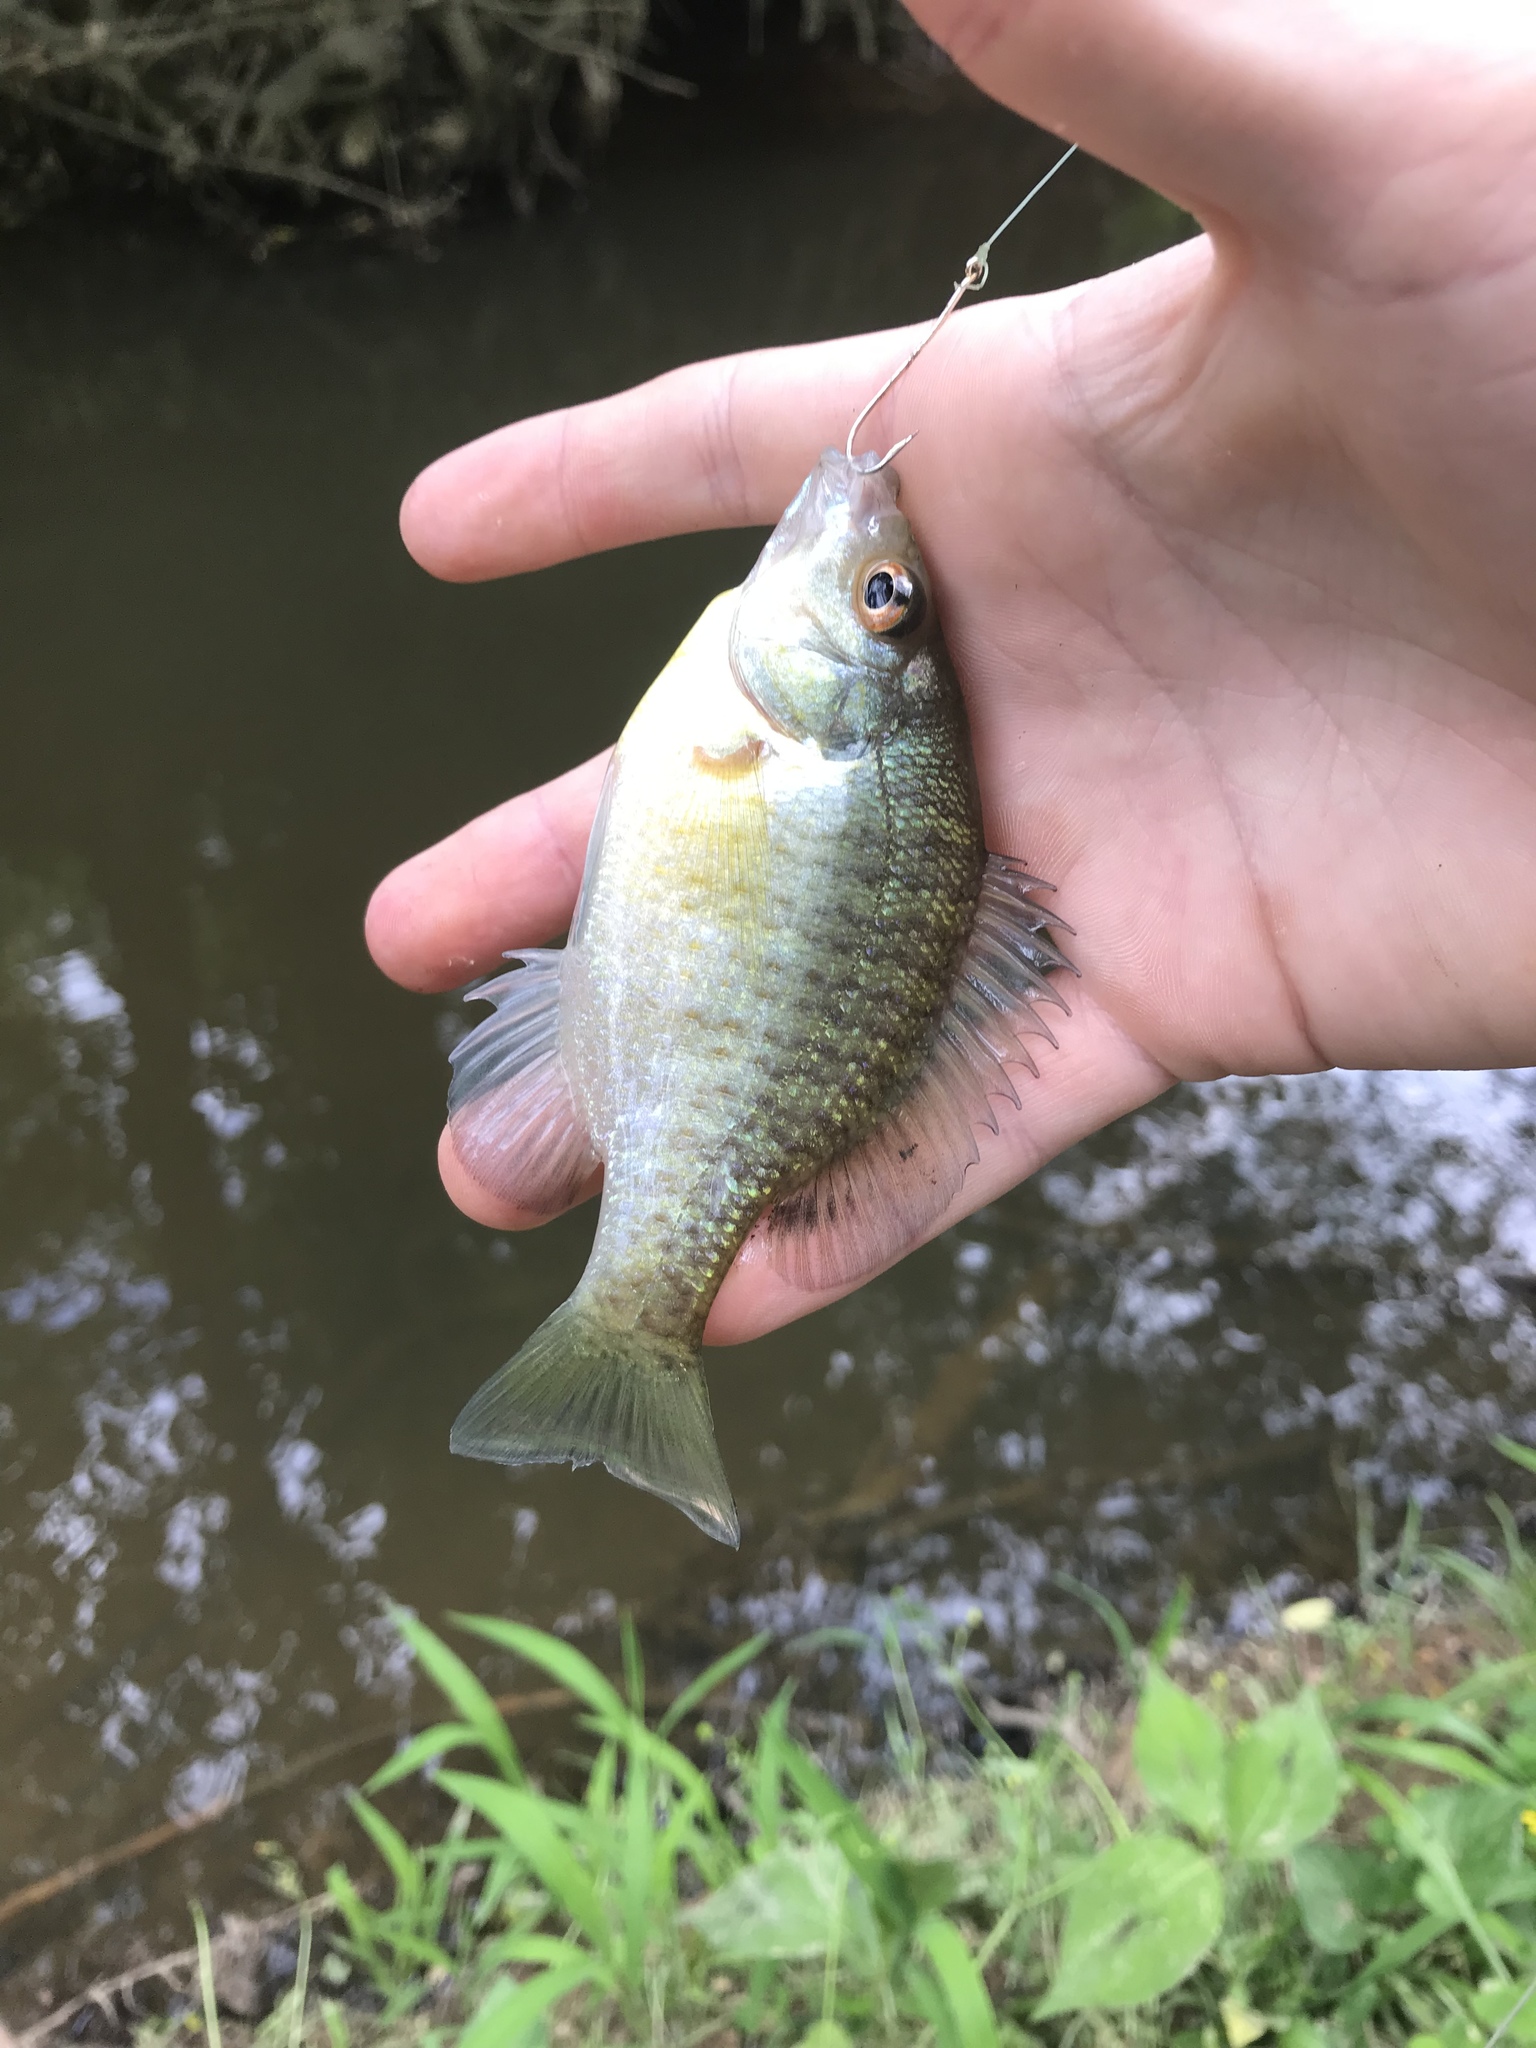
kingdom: Animalia
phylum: Chordata
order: Perciformes
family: Centrarchidae
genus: Lepomis
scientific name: Lepomis macrochirus
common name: Bluegill
